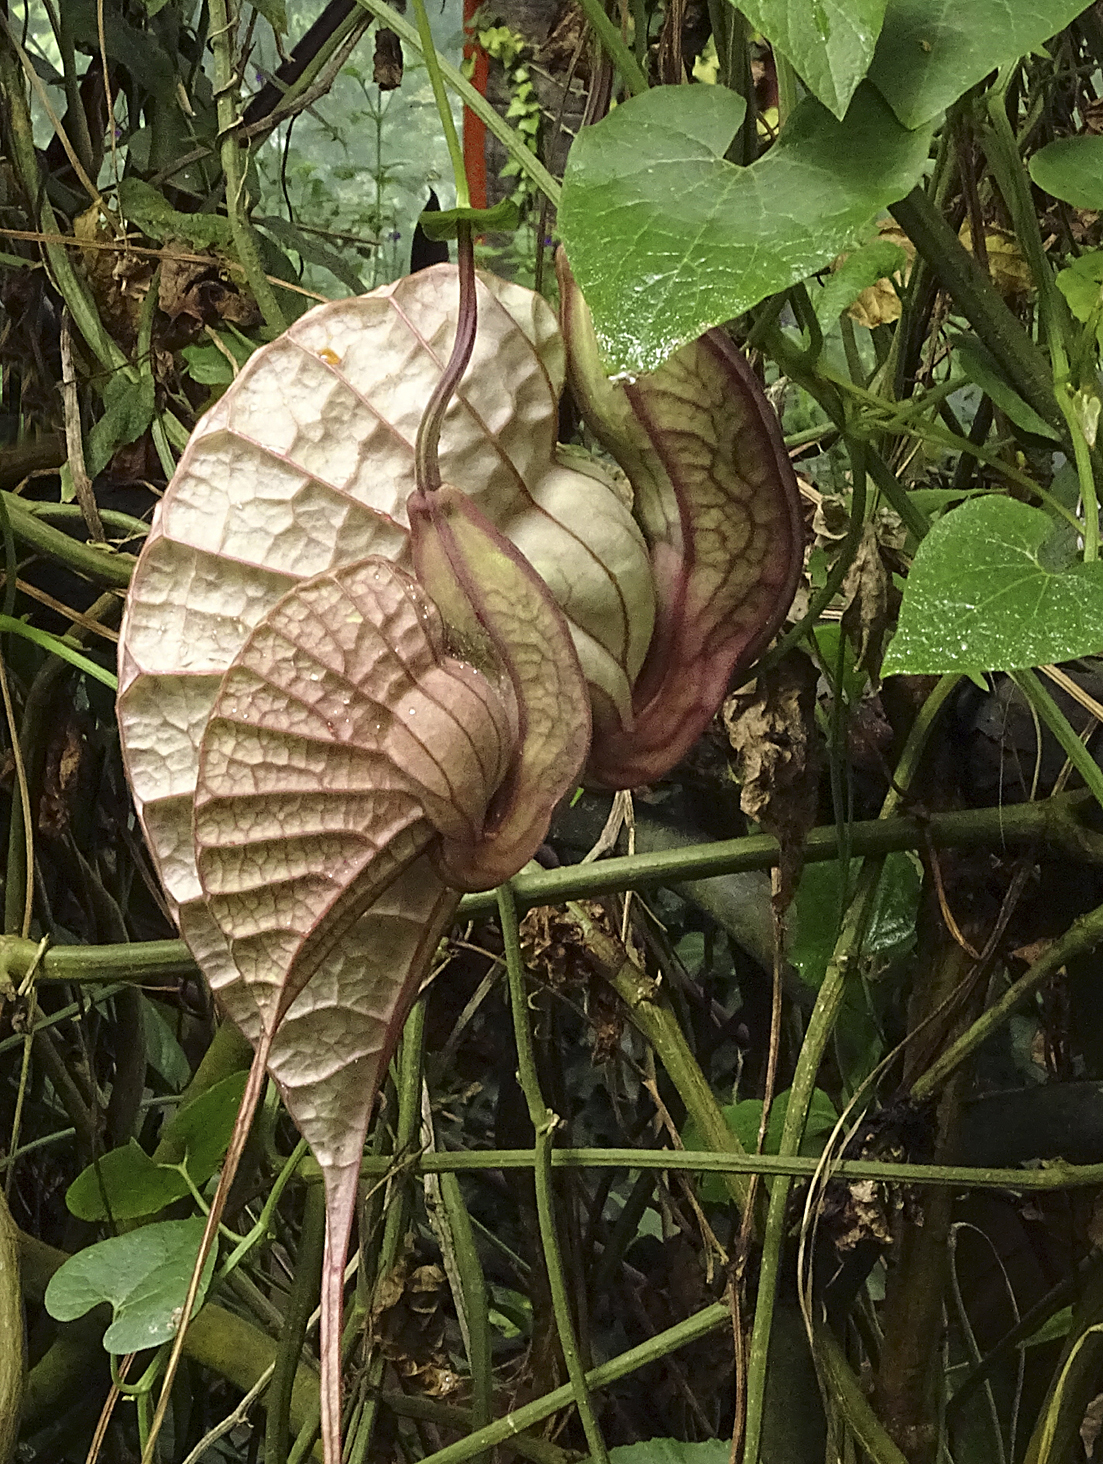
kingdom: Plantae
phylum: Tracheophyta
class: Magnoliopsida
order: Piperales
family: Aristolochiaceae
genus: Aristolochia
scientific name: Aristolochia grandiflora
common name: Pelicanflower
